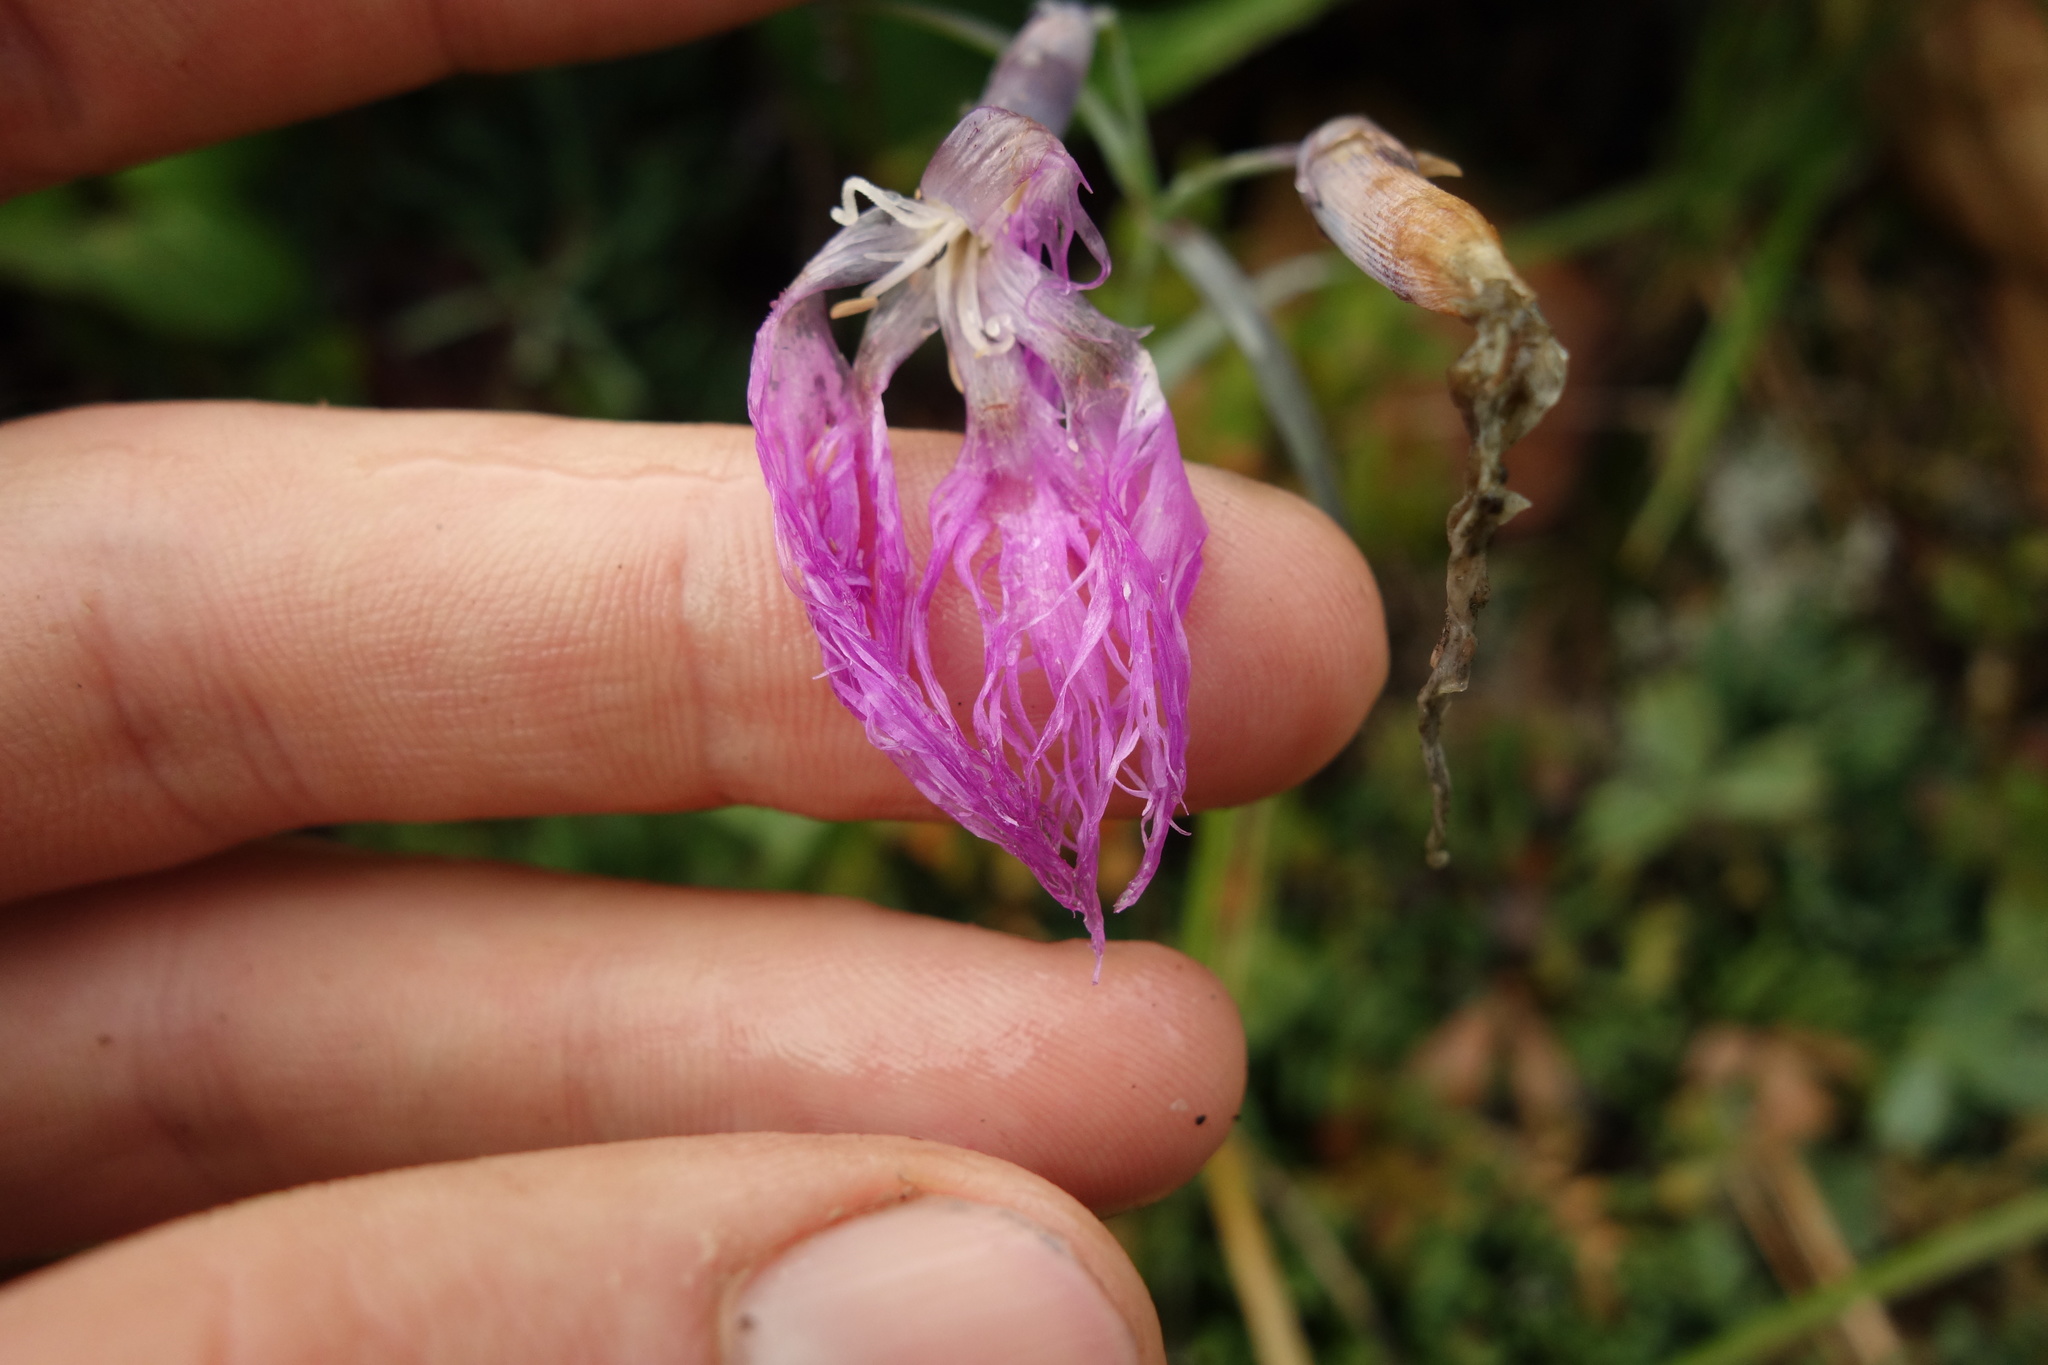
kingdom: Plantae
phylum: Tracheophyta
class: Magnoliopsida
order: Caryophyllales
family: Caryophyllaceae
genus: Dianthus
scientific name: Dianthus superbus
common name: Fringed pink
